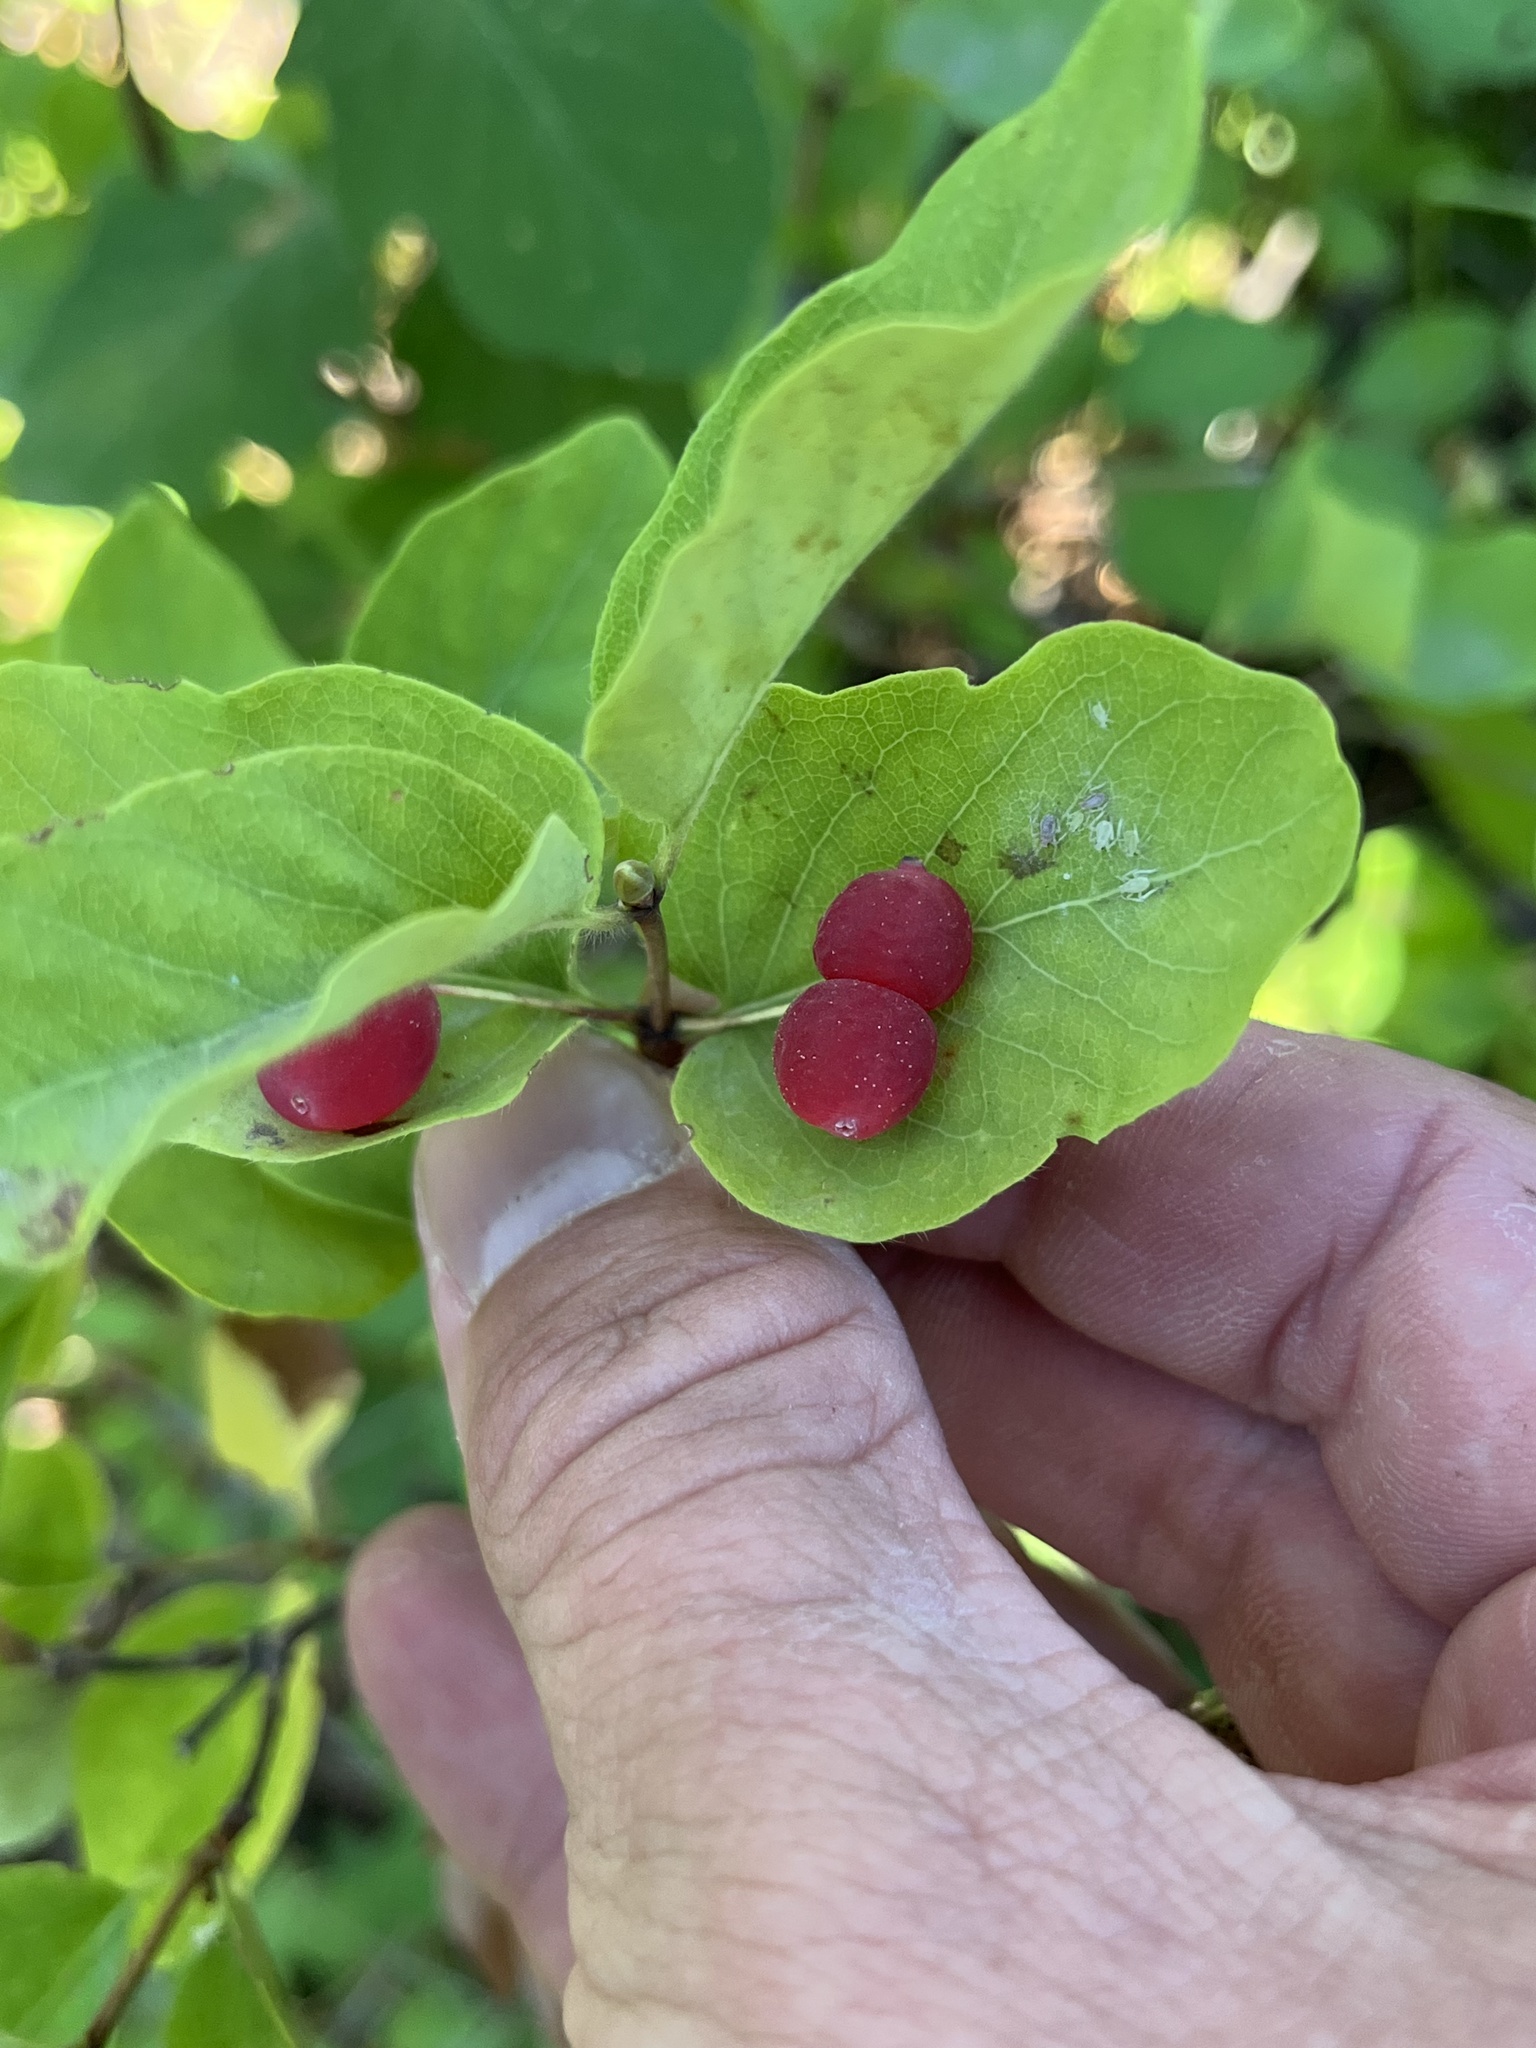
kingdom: Plantae
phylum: Tracheophyta
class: Magnoliopsida
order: Dipsacales
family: Caprifoliaceae
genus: Lonicera
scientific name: Lonicera utahensis
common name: Utah honeysuckle
